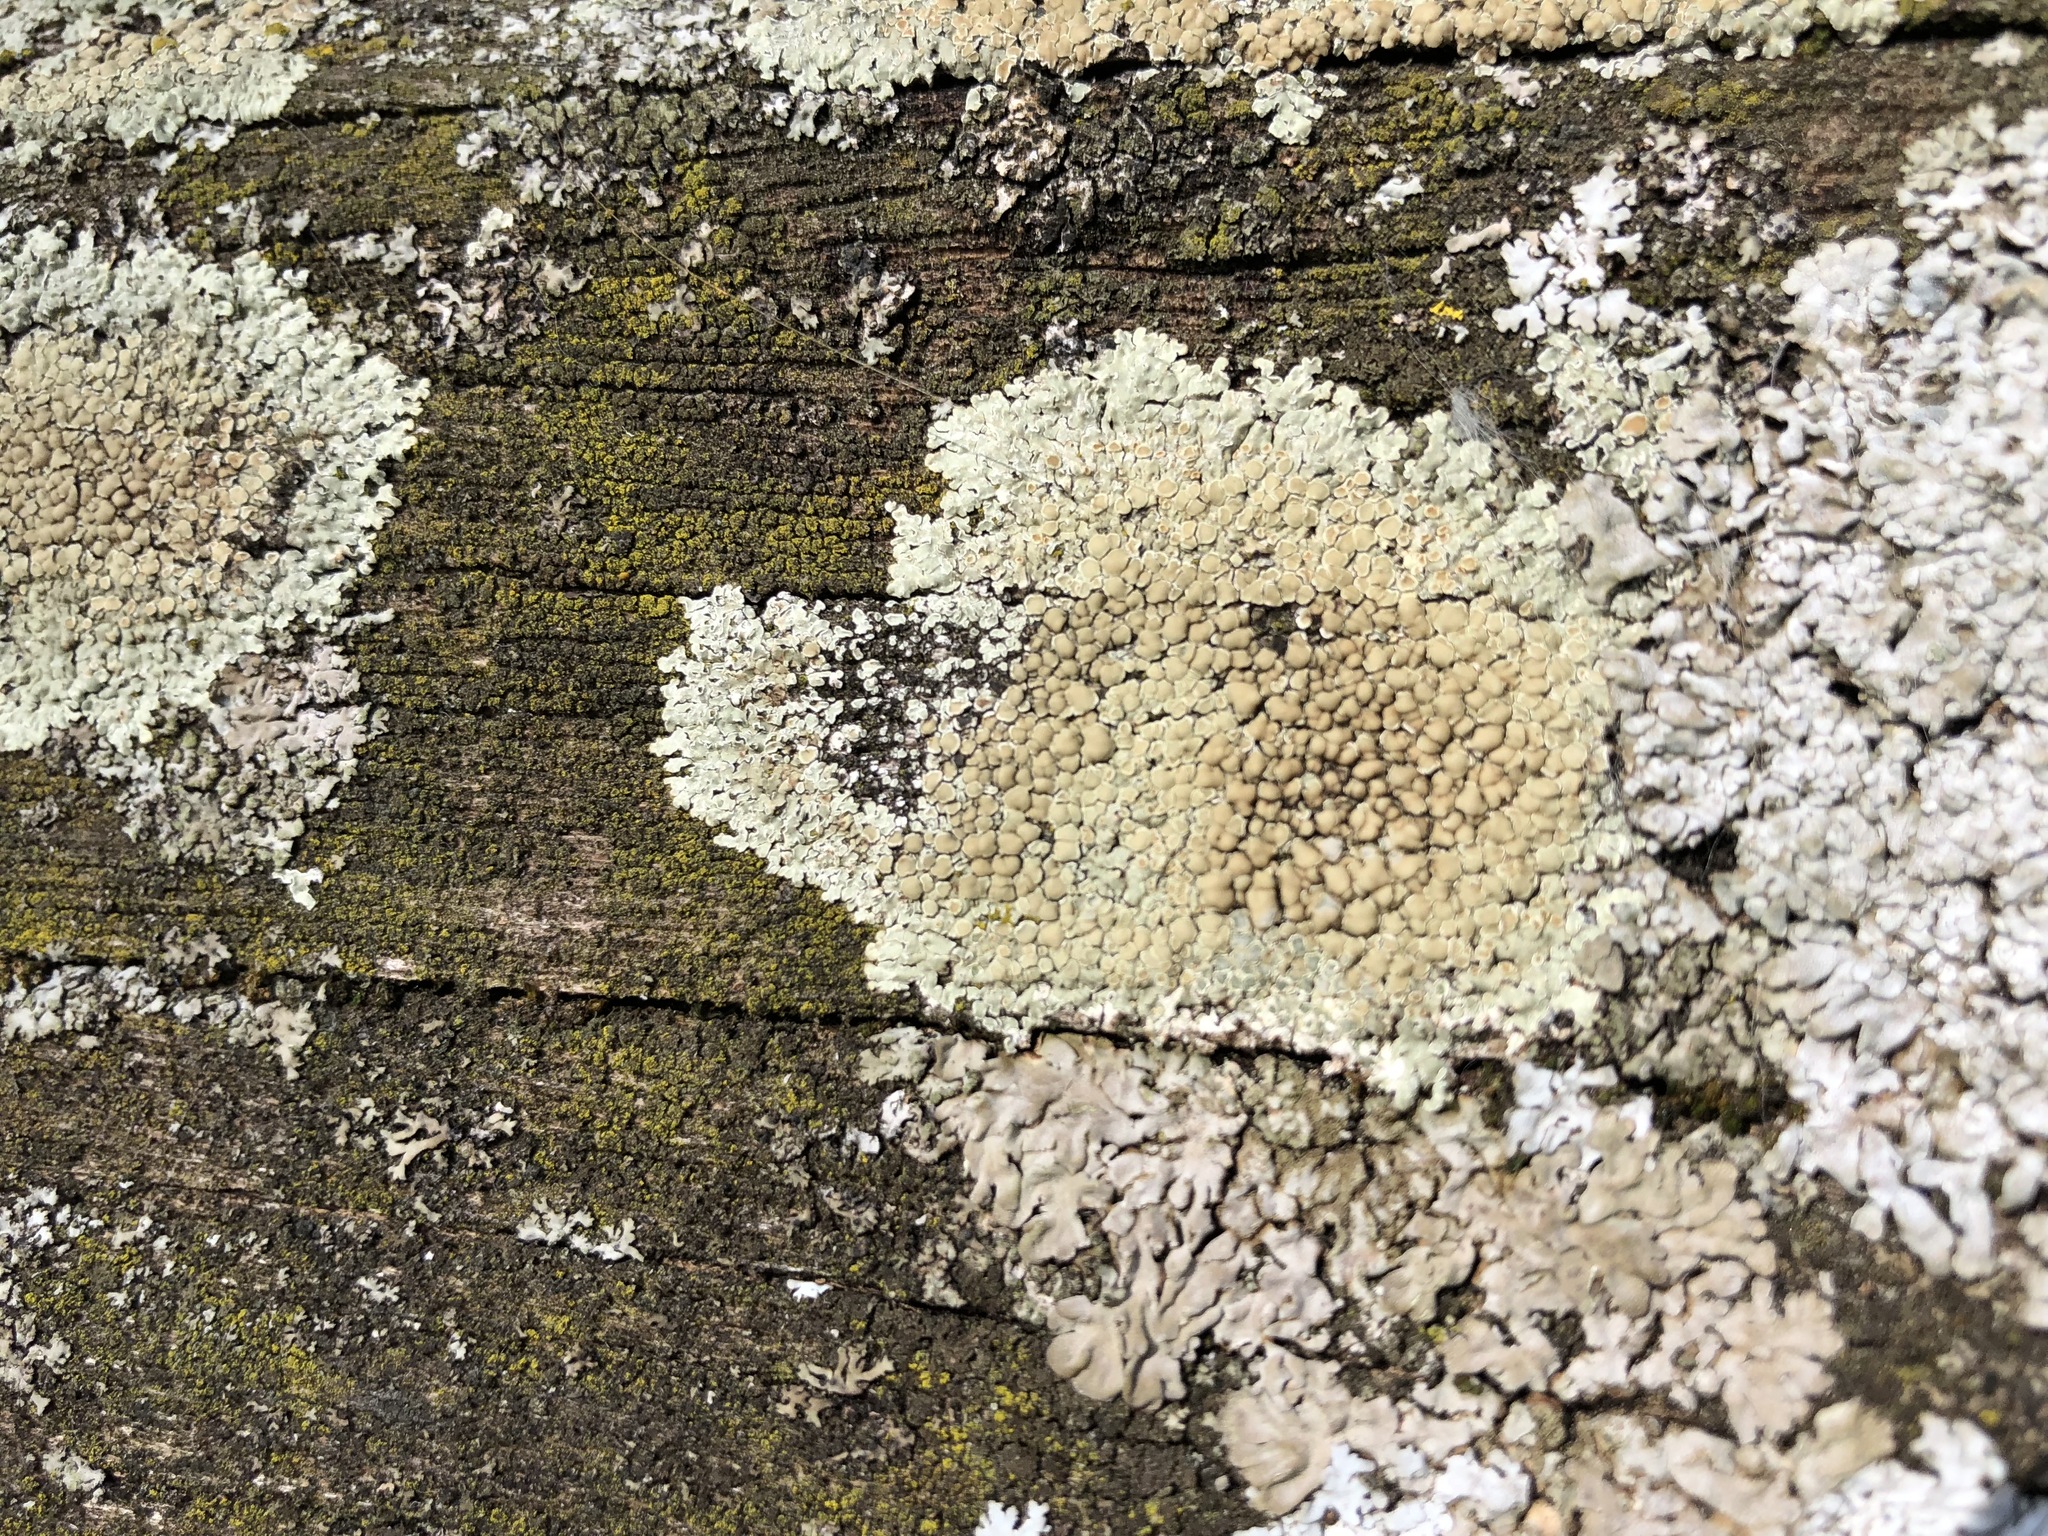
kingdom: Fungi
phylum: Ascomycota
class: Lecanoromycetes
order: Lecanorales
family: Lecanoraceae
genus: Protoparmeliopsis
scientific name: Protoparmeliopsis muralis
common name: Stonewall rim lichen
